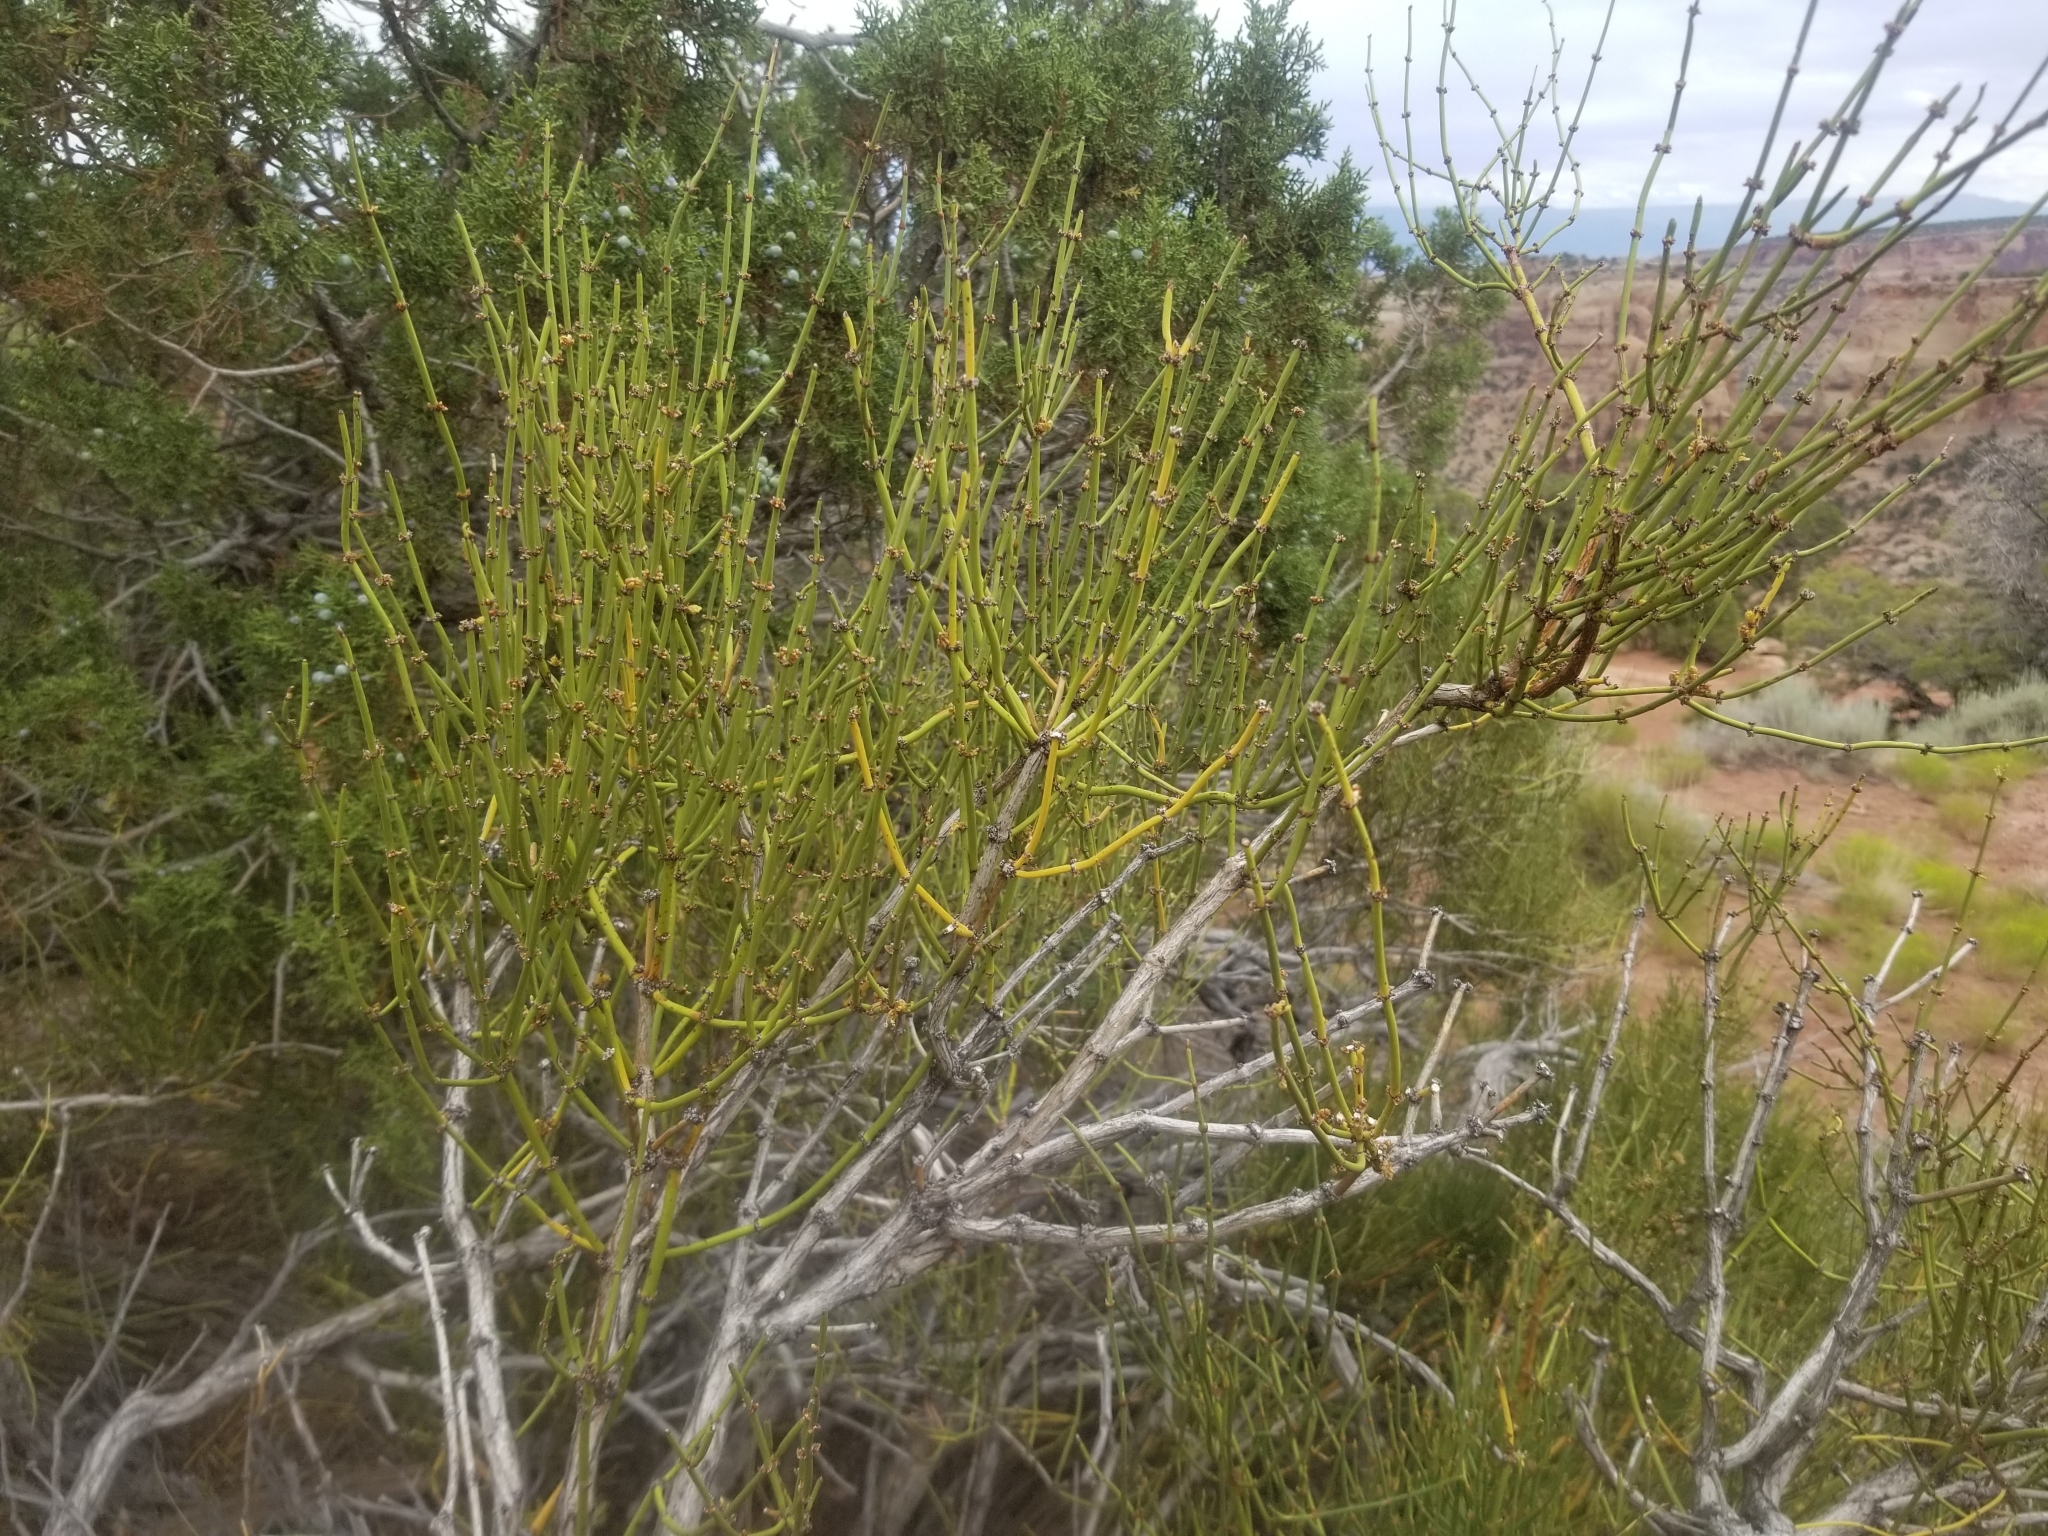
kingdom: Plantae
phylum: Tracheophyta
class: Gnetopsida
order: Ephedrales
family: Ephedraceae
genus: Ephedra
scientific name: Ephedra viridis
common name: Green ephedra
